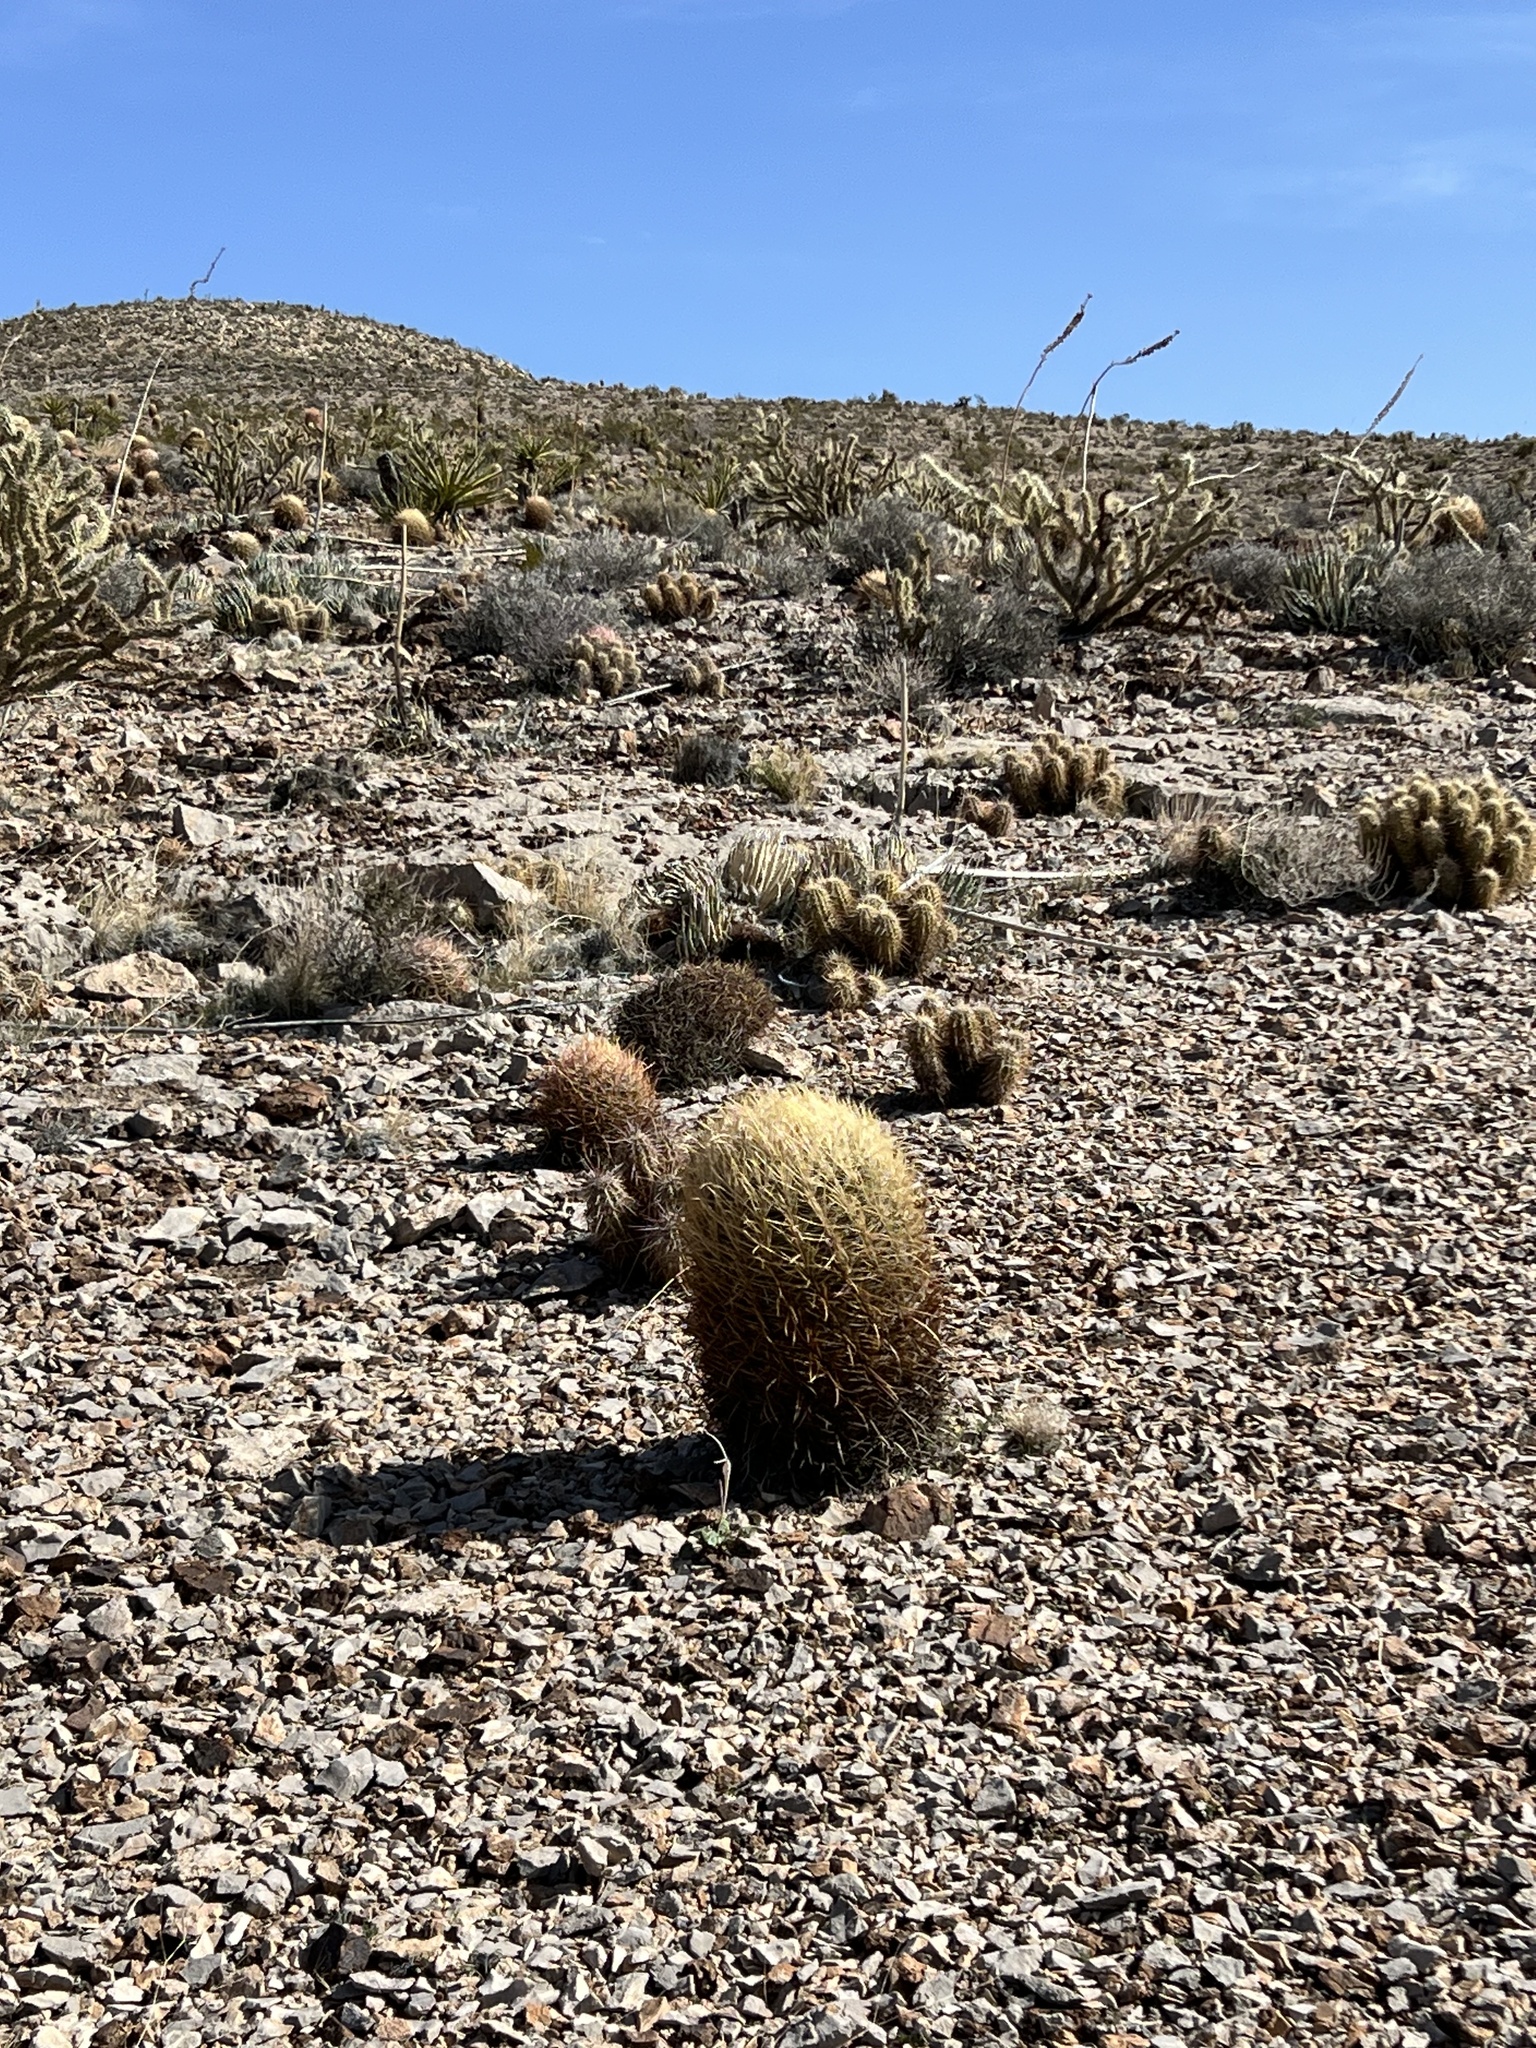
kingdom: Plantae
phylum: Tracheophyta
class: Magnoliopsida
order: Caryophyllales
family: Cactaceae
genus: Ferocactus
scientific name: Ferocactus cylindraceus
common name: California barrel cactus
